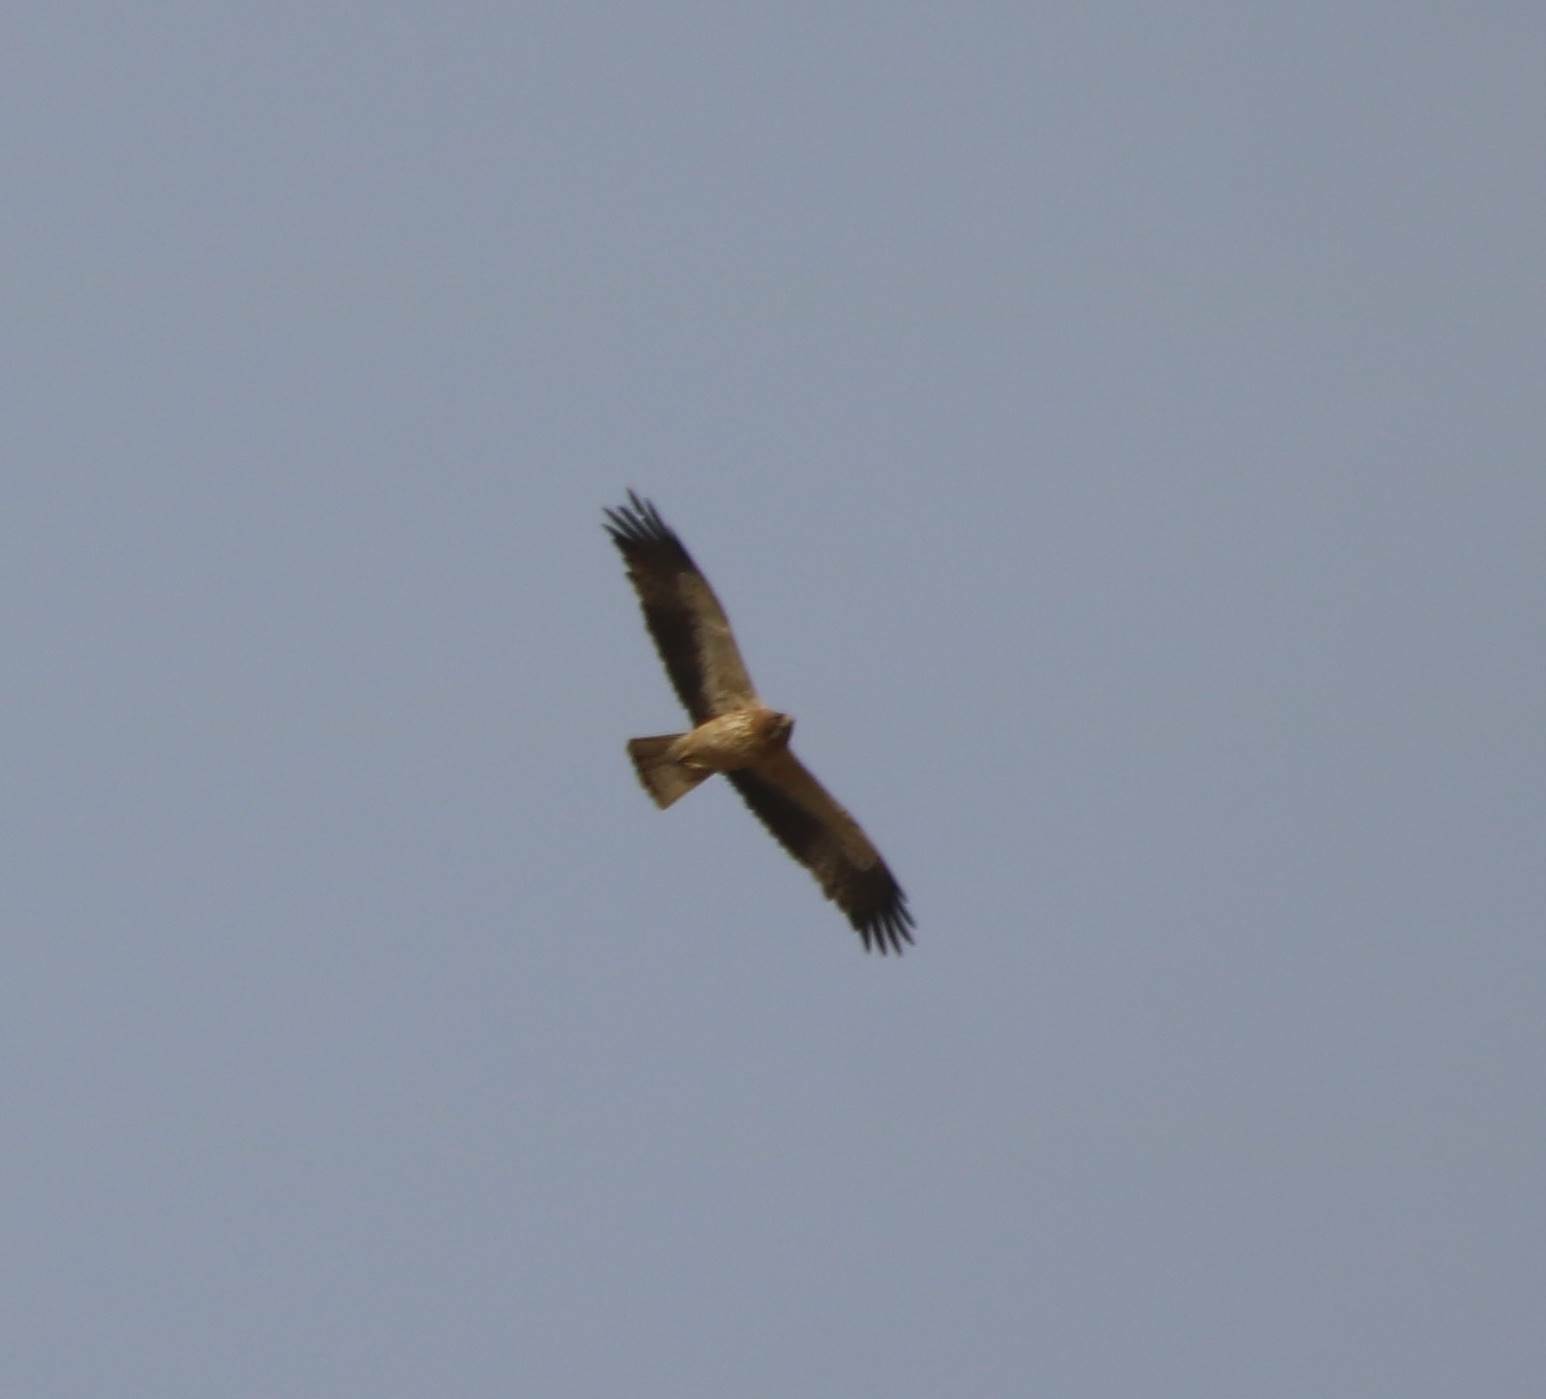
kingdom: Animalia
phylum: Chordata
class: Aves
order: Accipitriformes
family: Accipitridae
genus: Hieraaetus
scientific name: Hieraaetus pennatus
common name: Booted eagle
